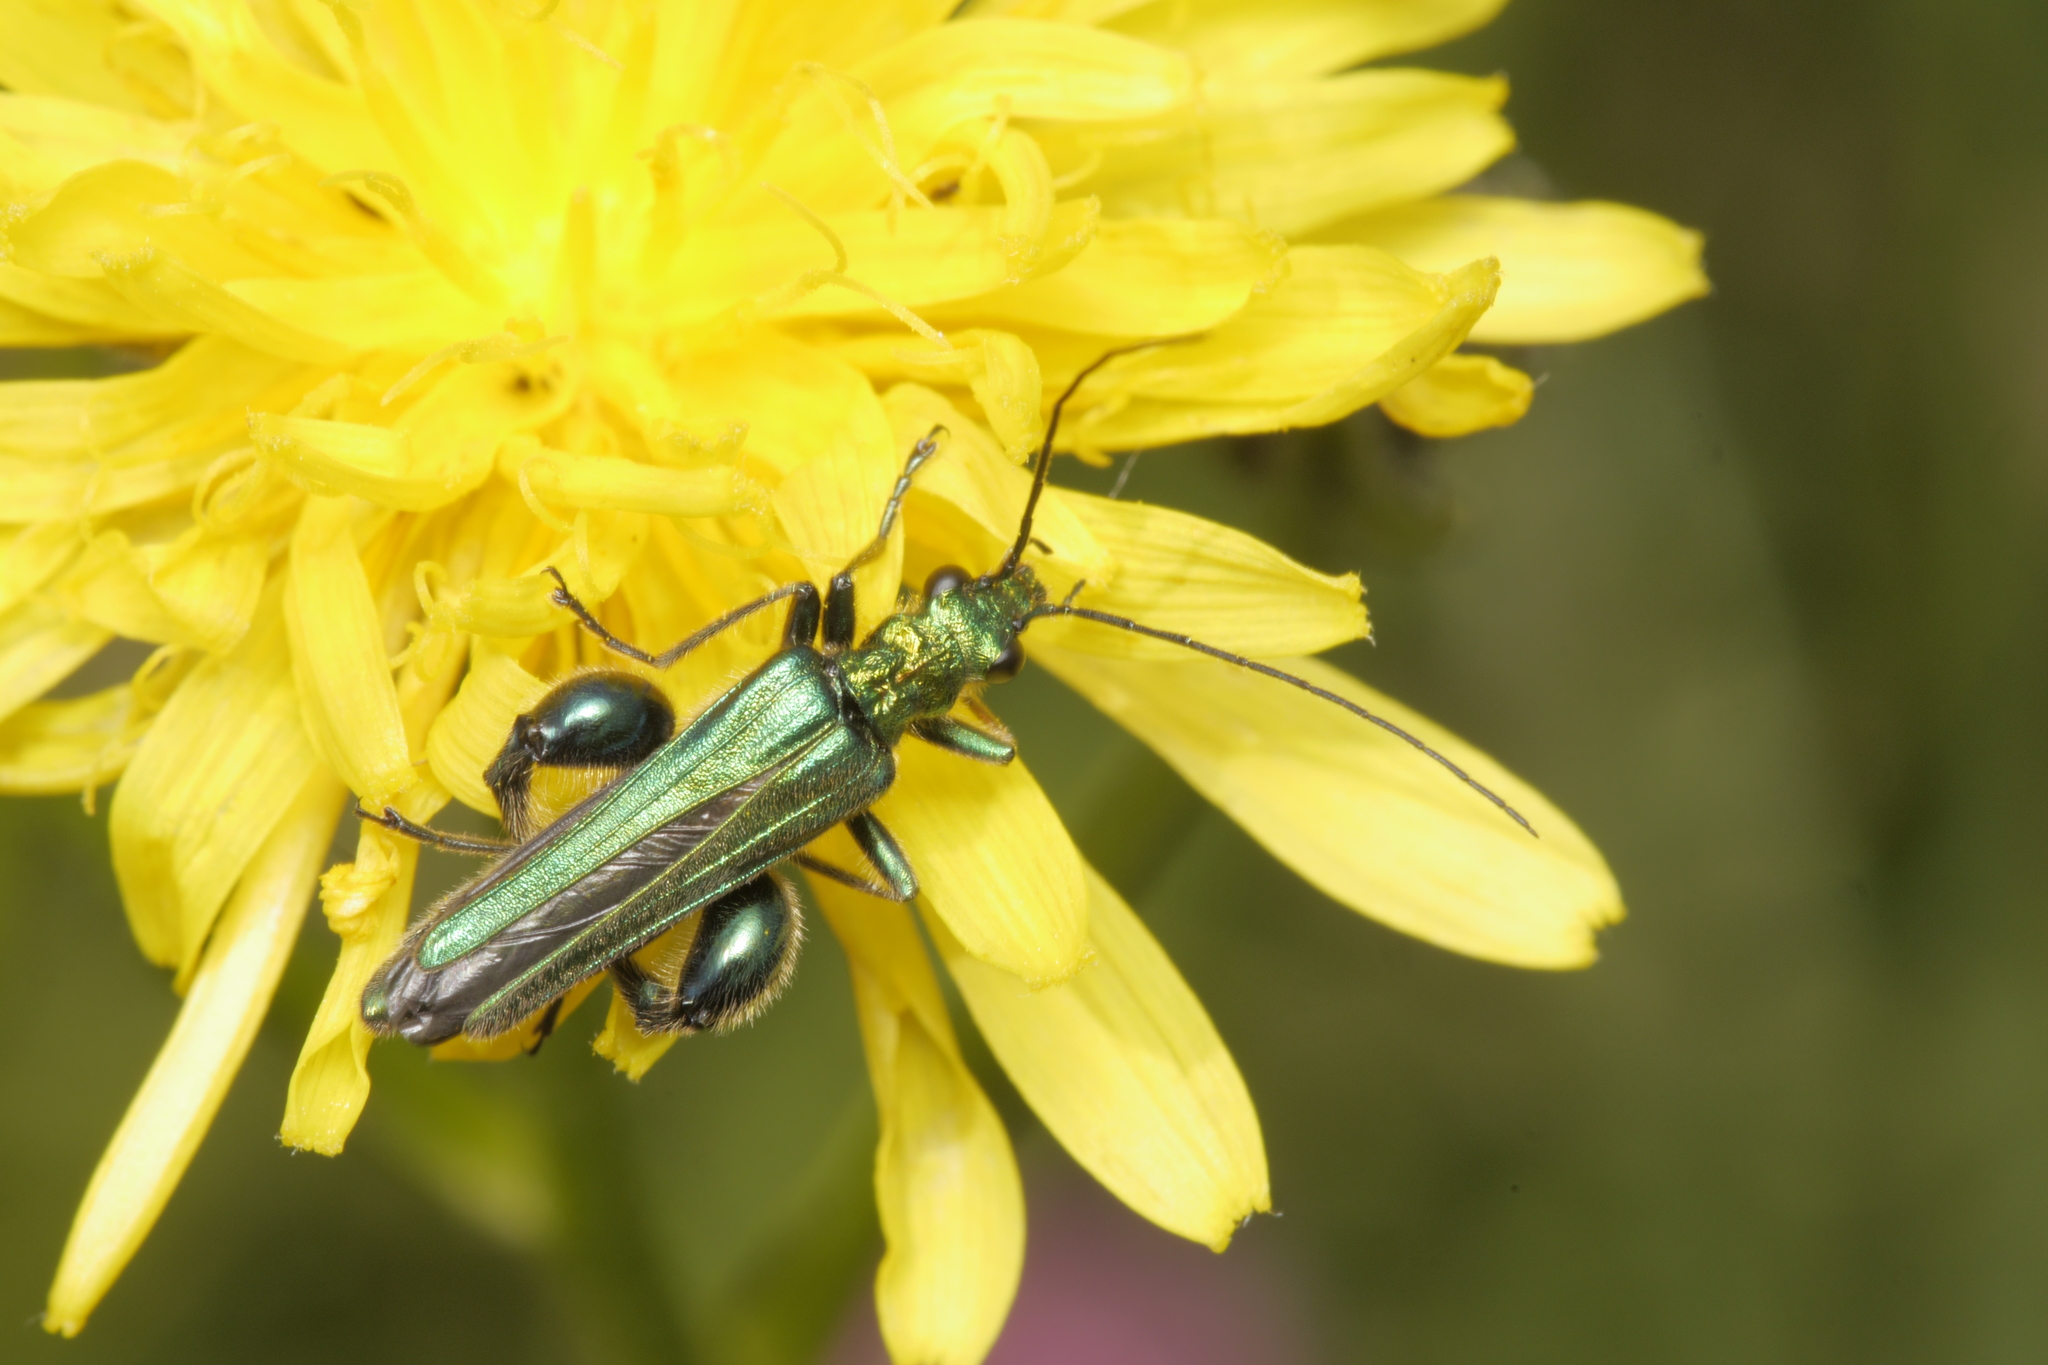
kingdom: Animalia
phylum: Arthropoda
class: Insecta
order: Coleoptera
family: Oedemeridae
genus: Oedemera
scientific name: Oedemera nobilis
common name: Swollen-thighed beetle
